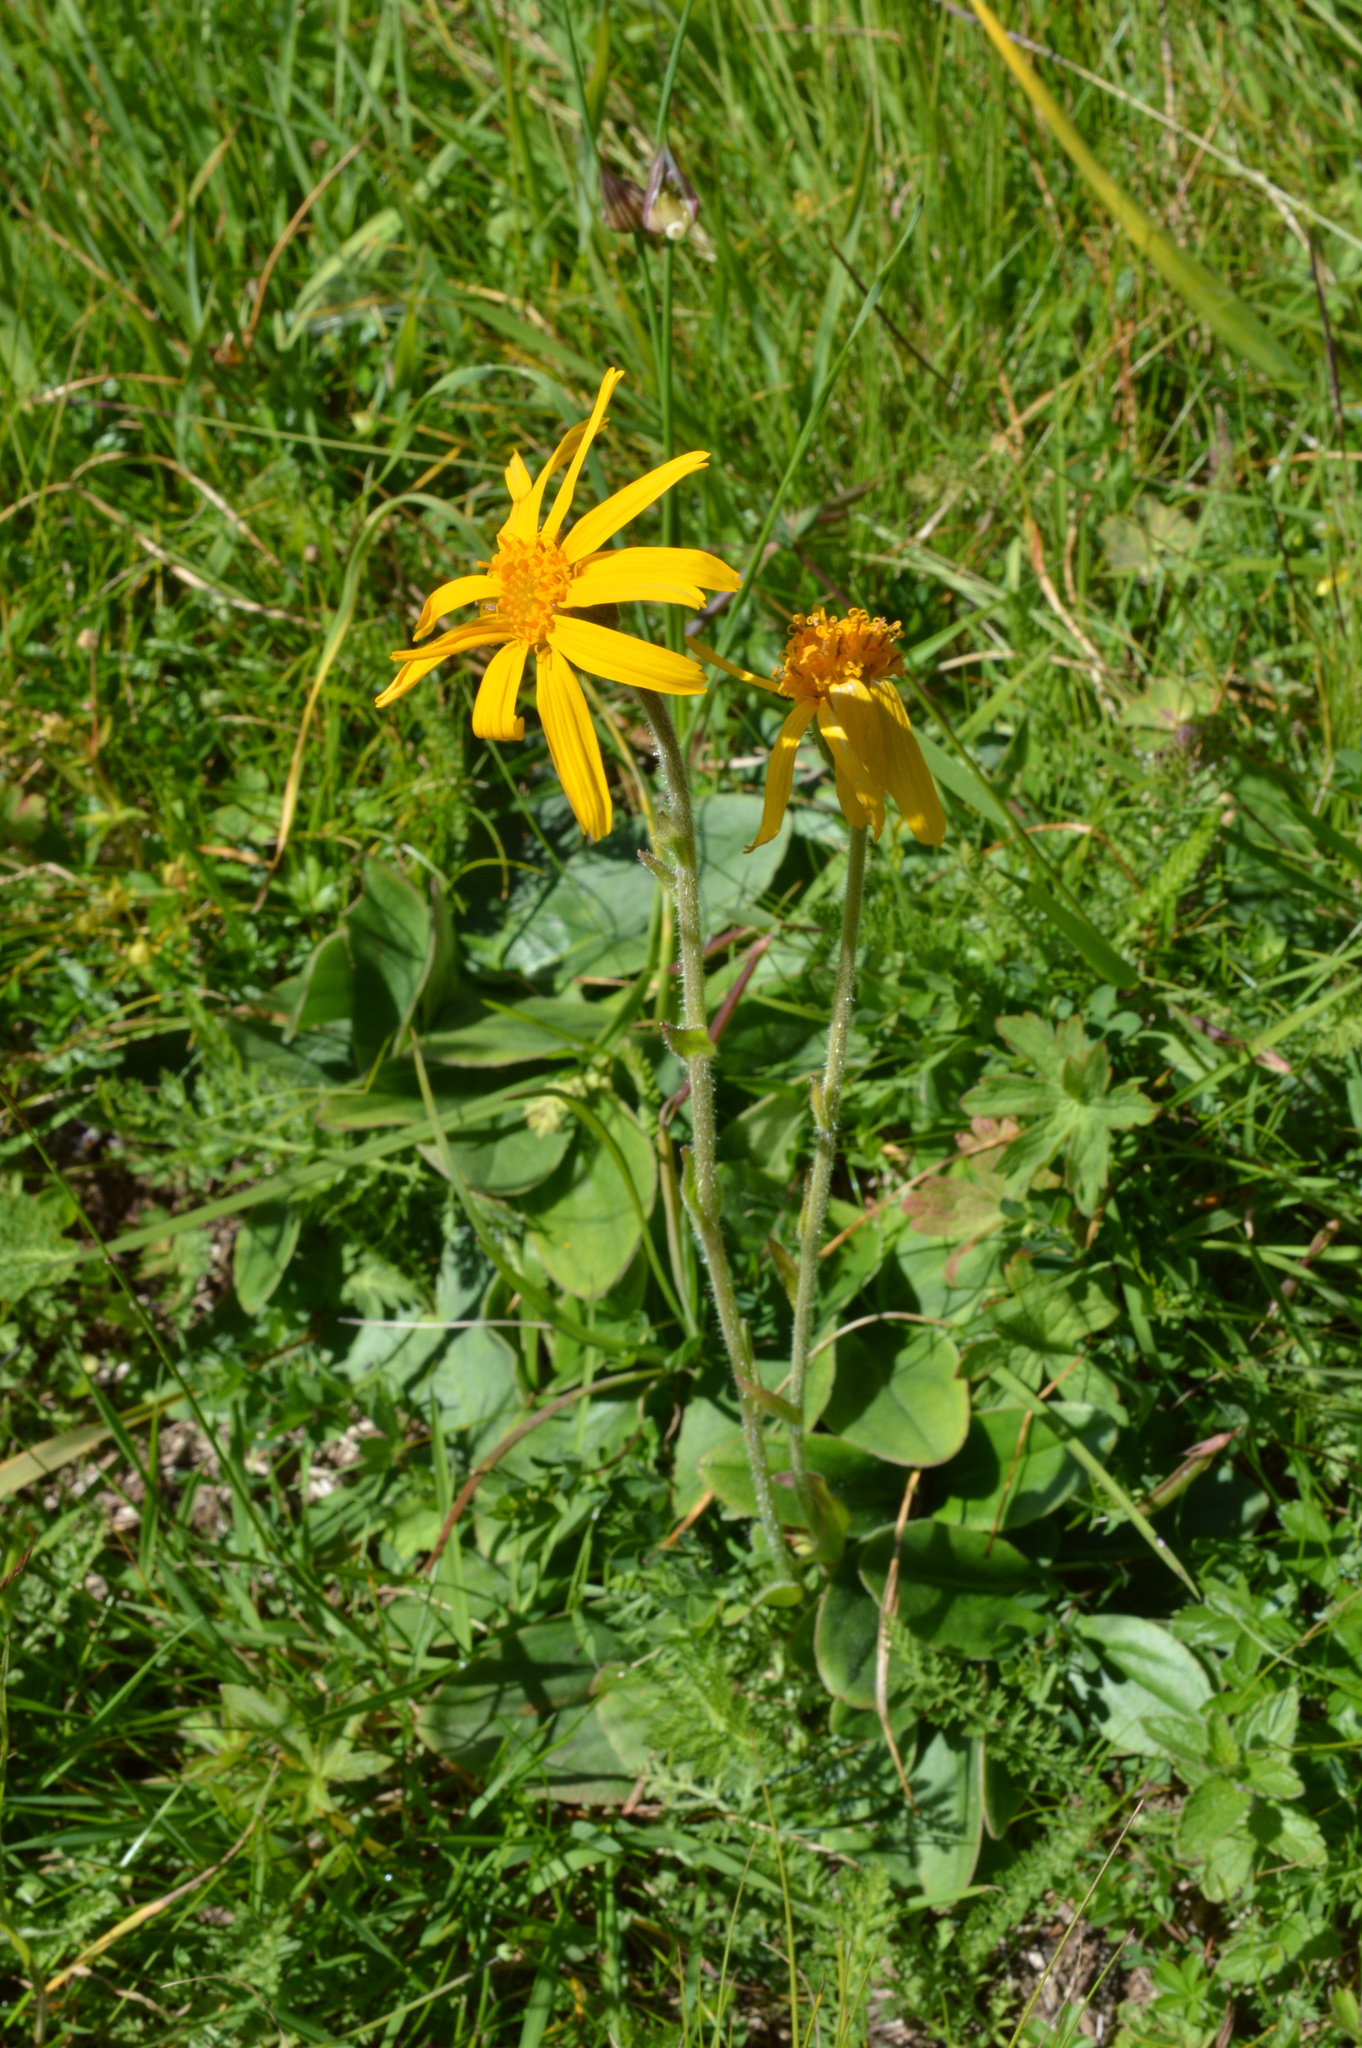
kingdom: Plantae
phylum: Tracheophyta
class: Magnoliopsida
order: Asterales
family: Asteraceae
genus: Arnica
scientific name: Arnica montana
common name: Leopard's bane
